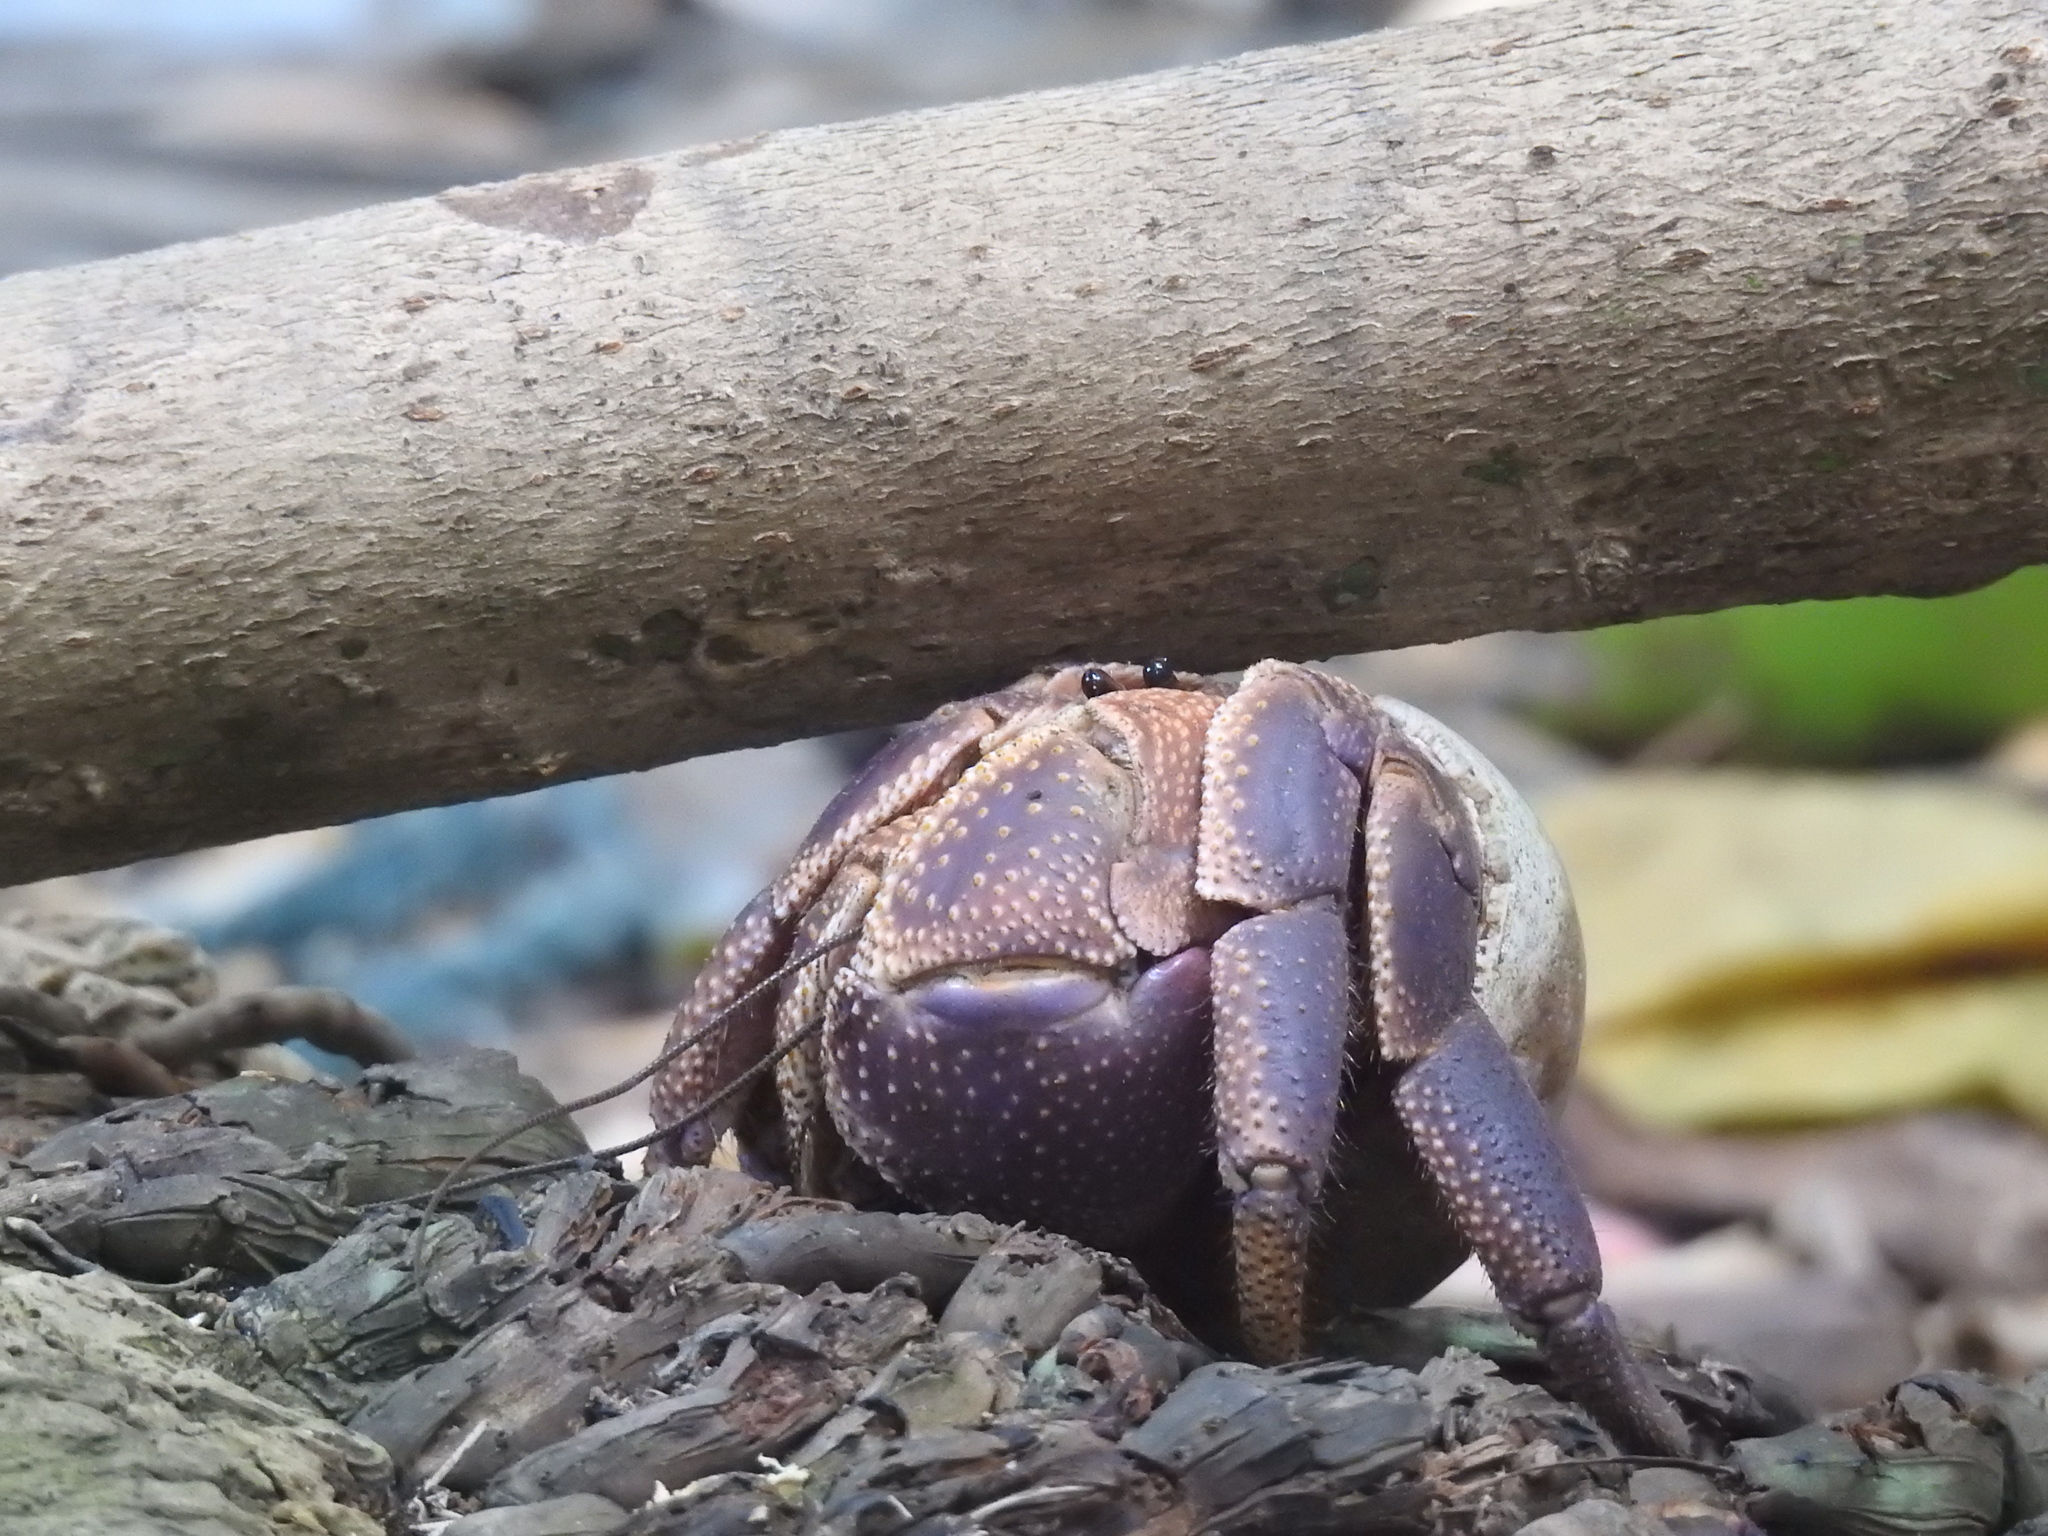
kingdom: Animalia
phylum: Arthropoda
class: Malacostraca
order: Decapoda
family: Coenobitidae
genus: Coenobita
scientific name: Coenobita brevimanus
